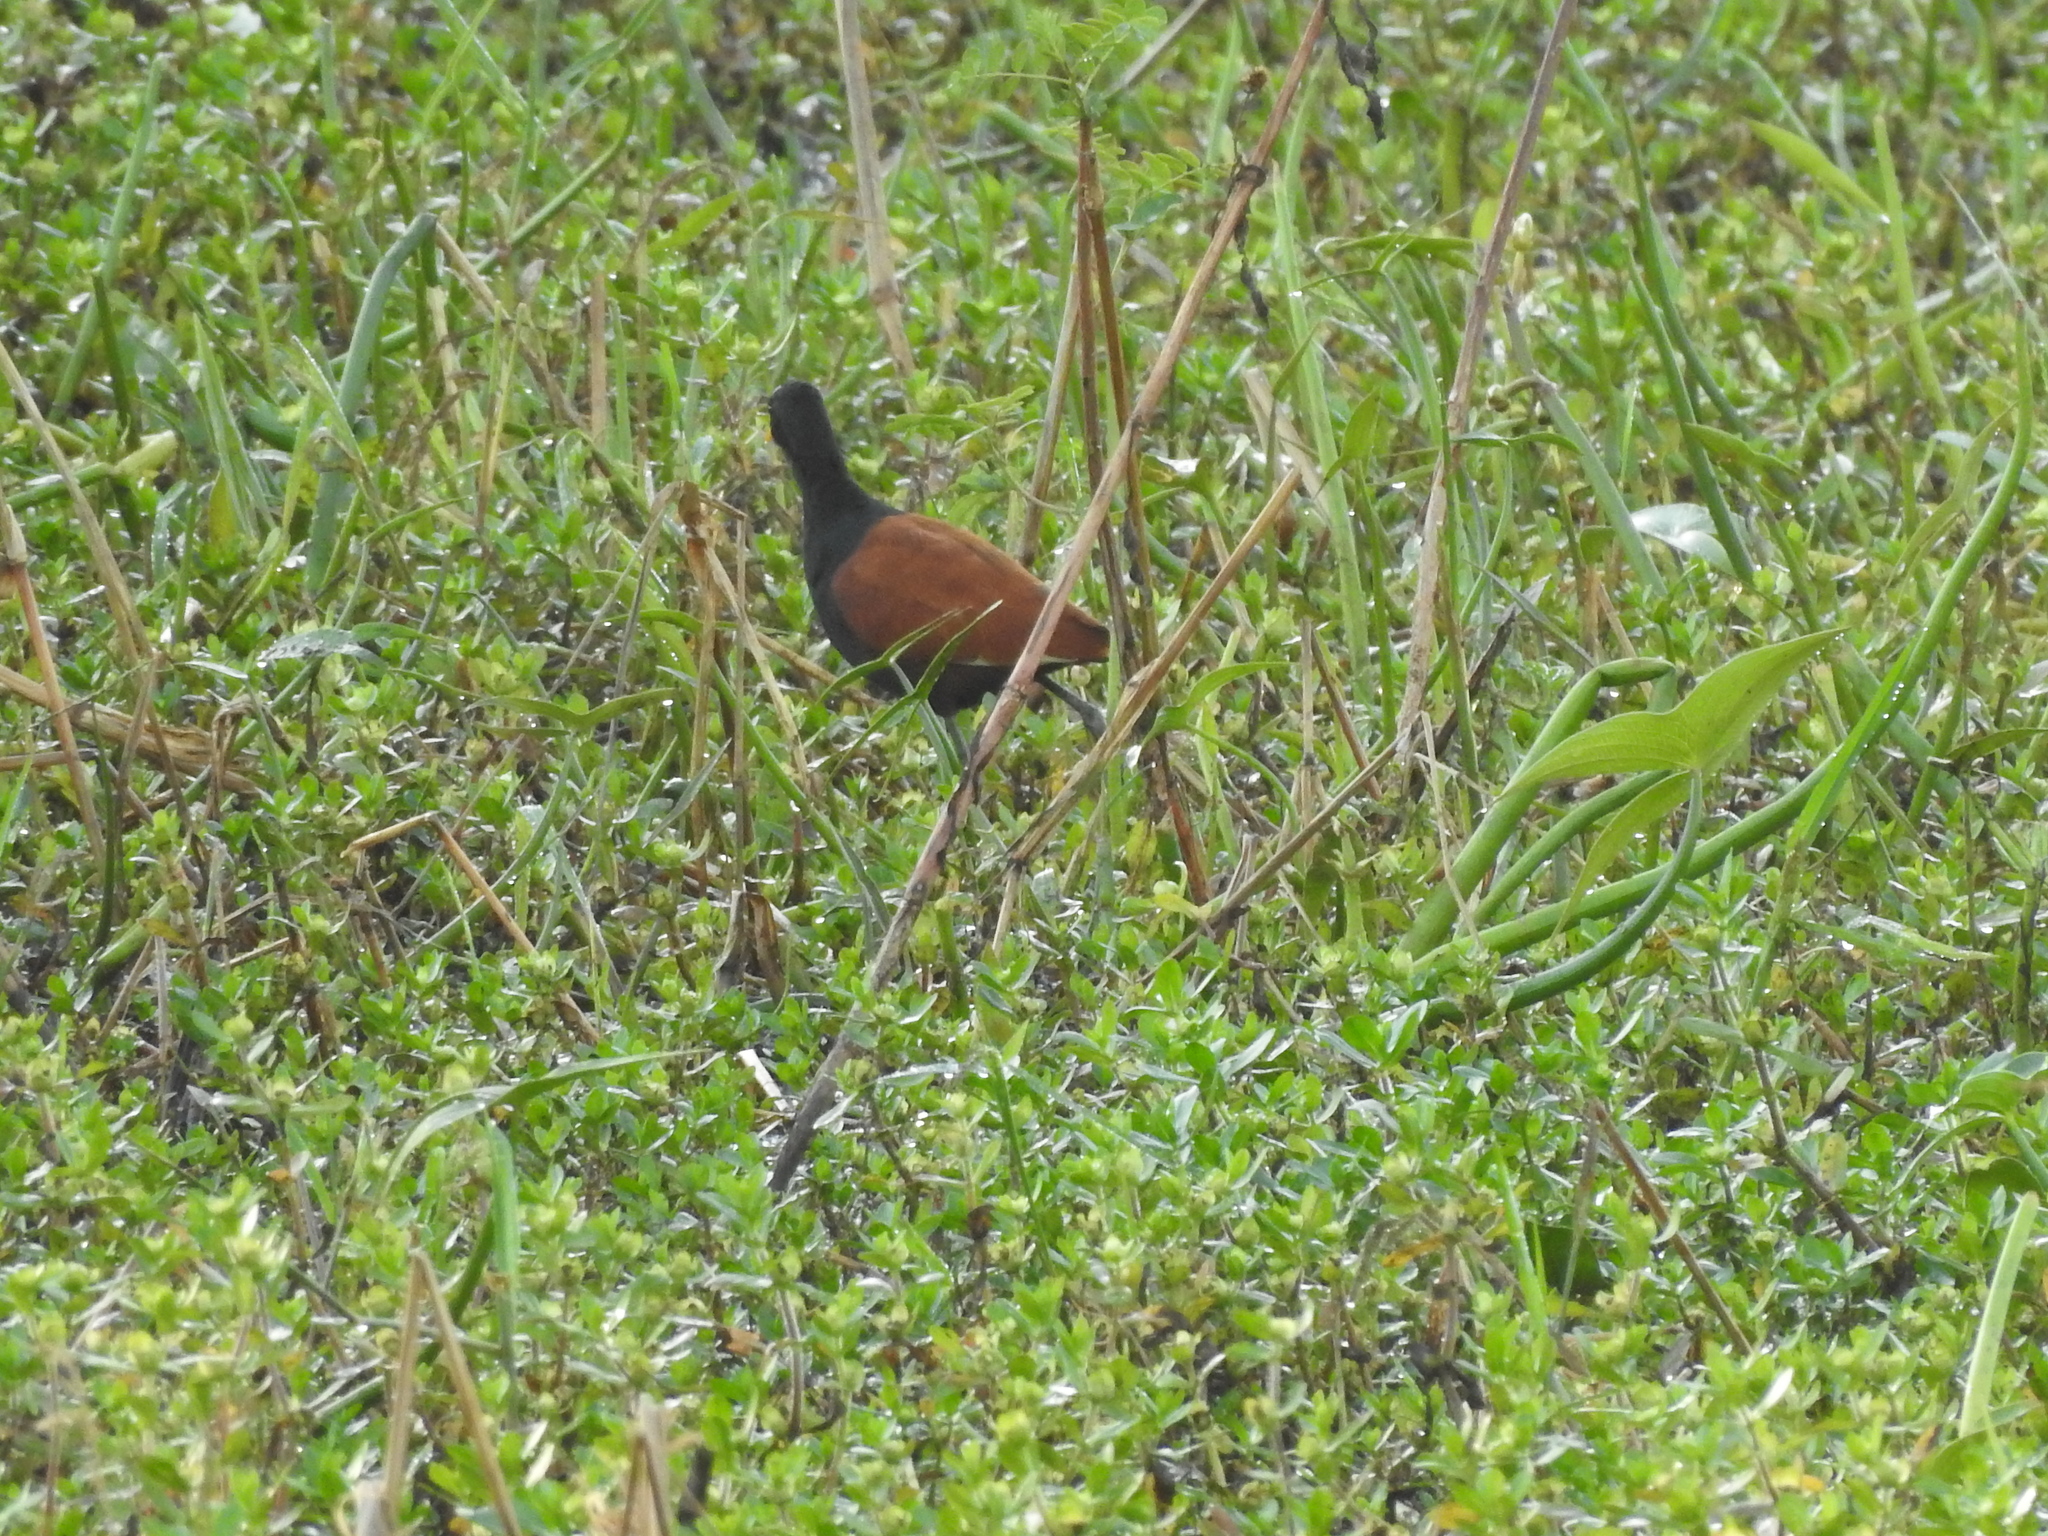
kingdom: Animalia
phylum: Chordata
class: Aves
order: Charadriiformes
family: Jacanidae
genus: Jacana
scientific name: Jacana jacana
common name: Wattled jacana
